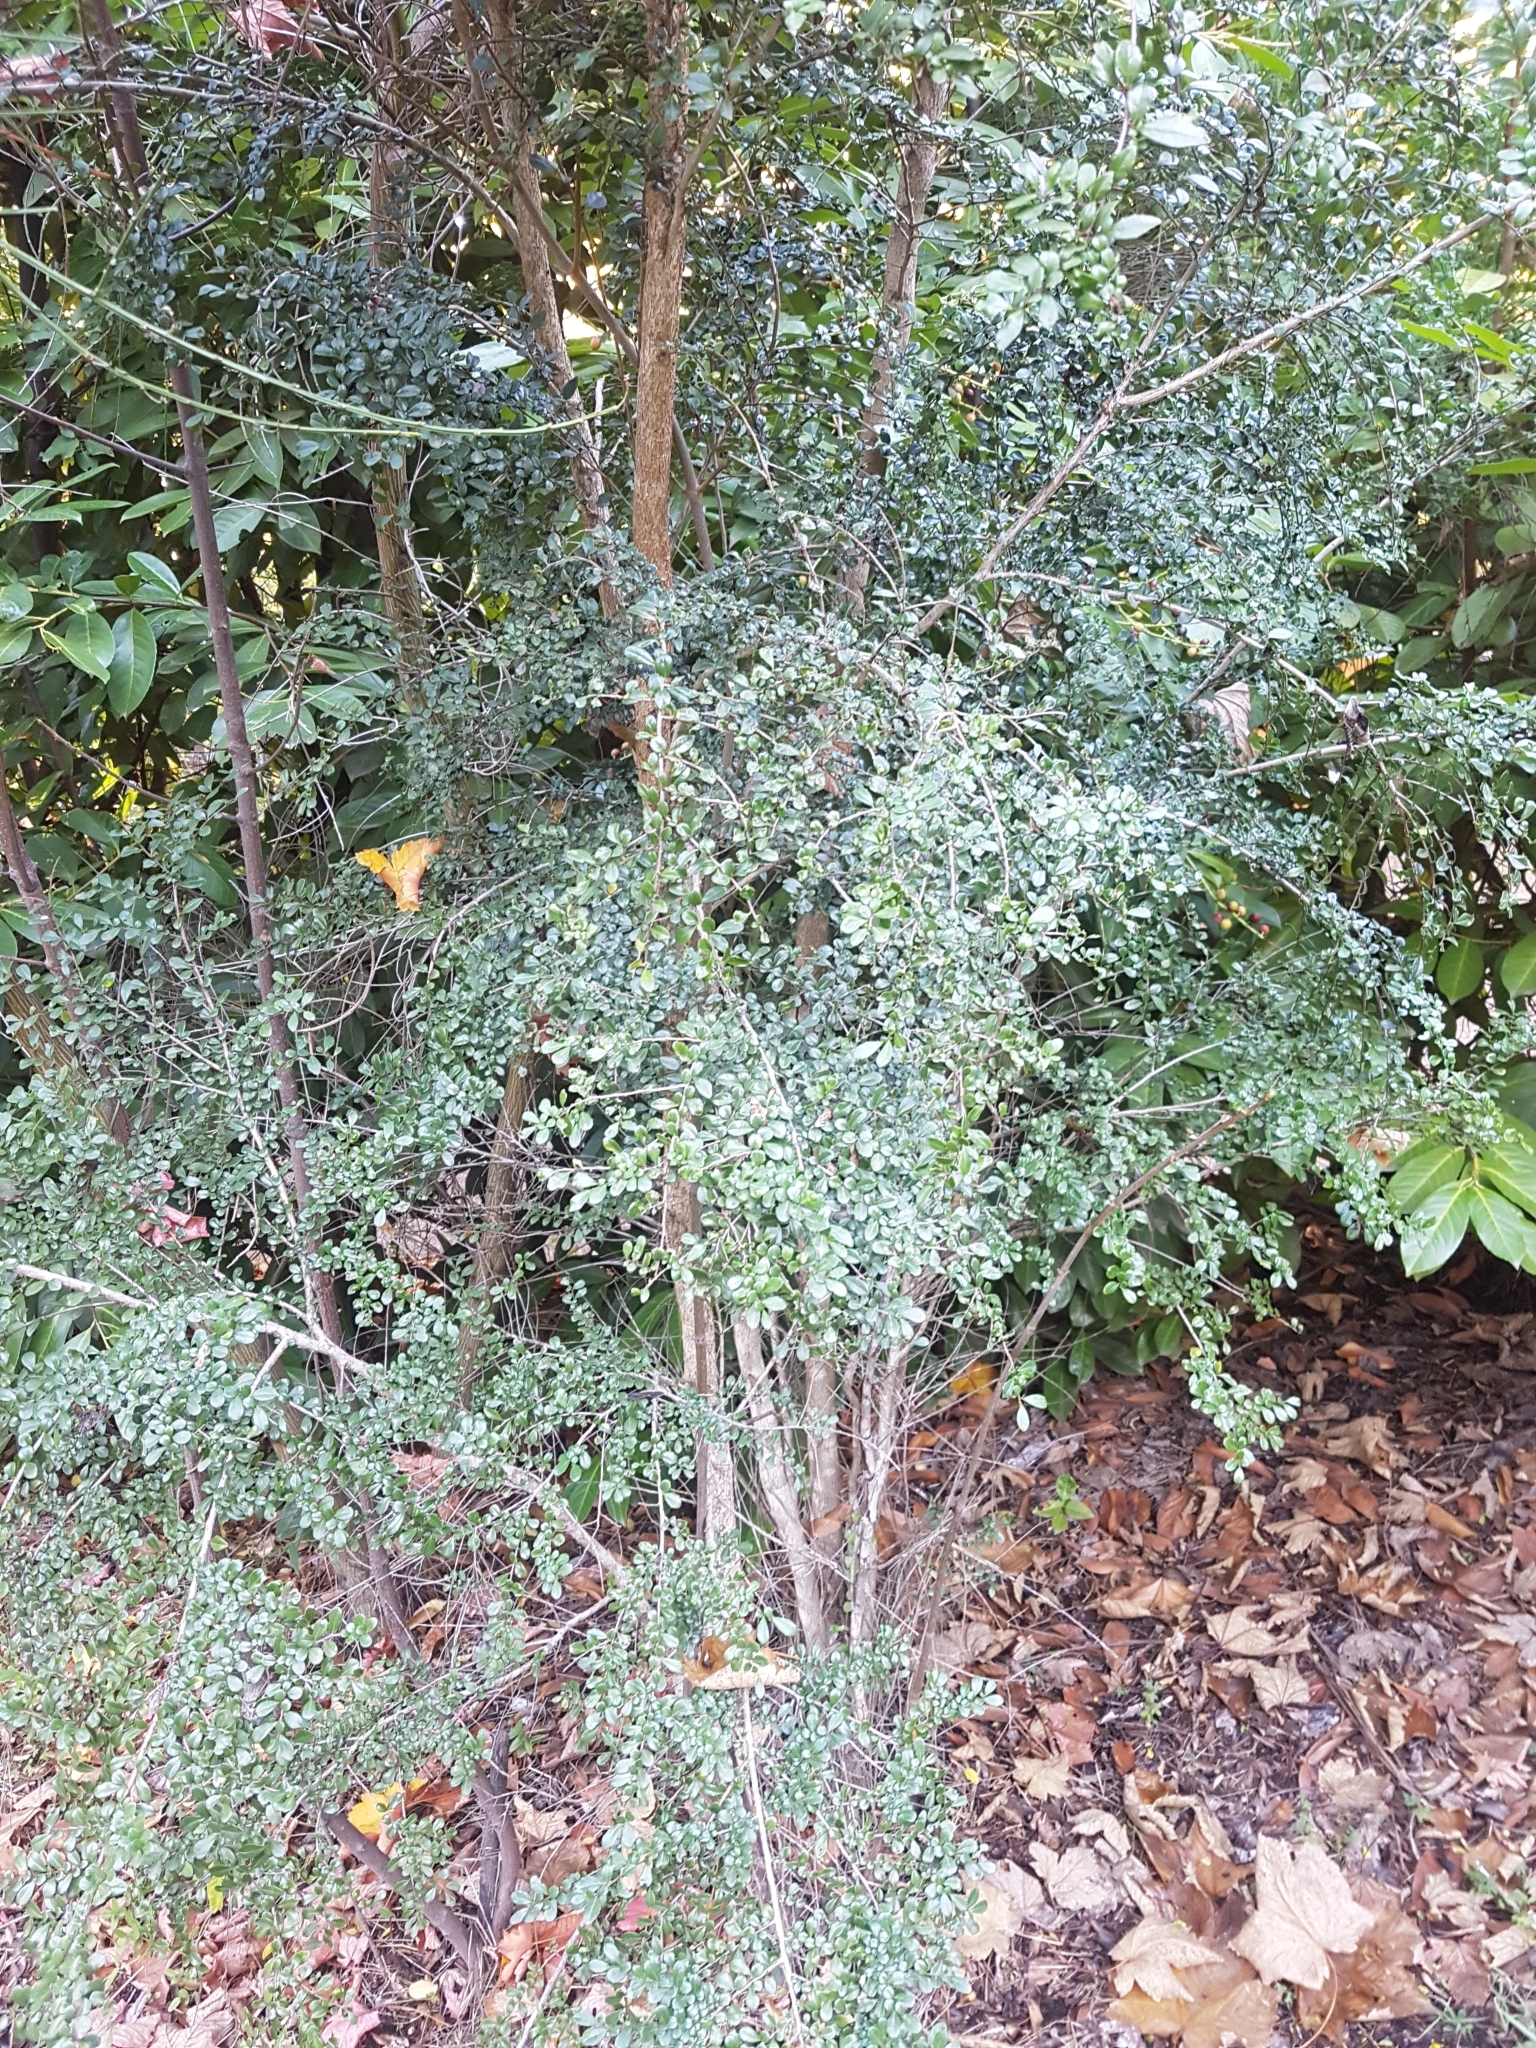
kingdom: Plantae
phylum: Tracheophyta
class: Magnoliopsida
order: Malpighiales
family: Salicaceae
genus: Azara
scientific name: Azara microphylla
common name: Box-leaf azara
